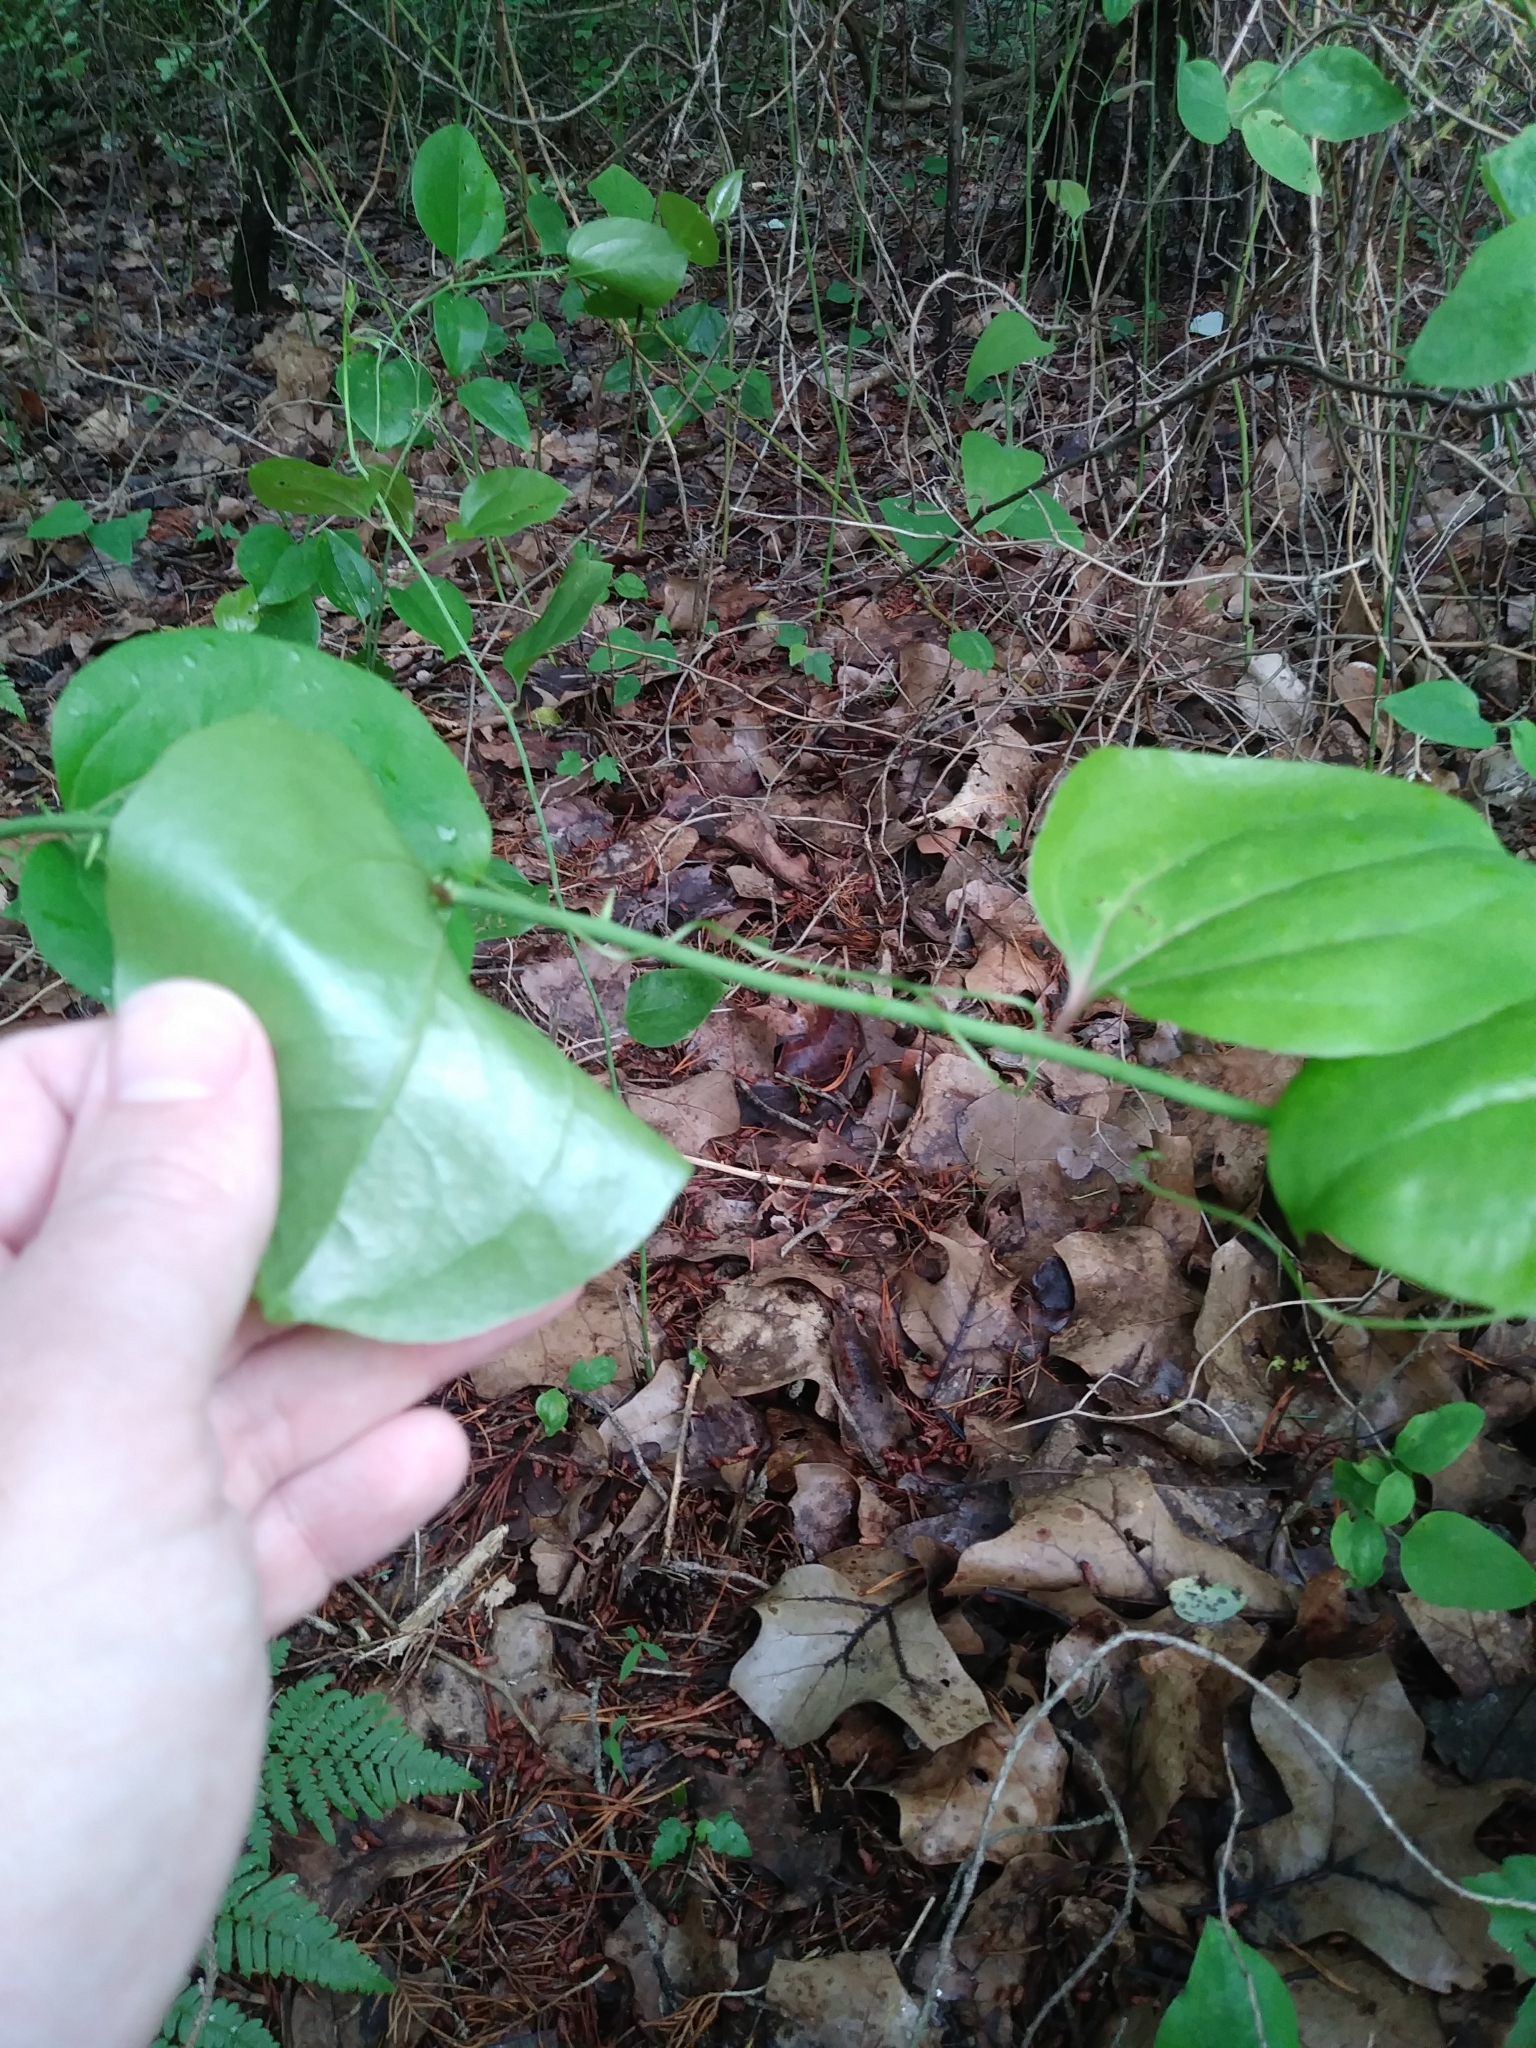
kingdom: Plantae
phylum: Tracheophyta
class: Liliopsida
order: Liliales
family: Smilacaceae
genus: Smilax
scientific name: Smilax rotundifolia
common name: Bullbriar
